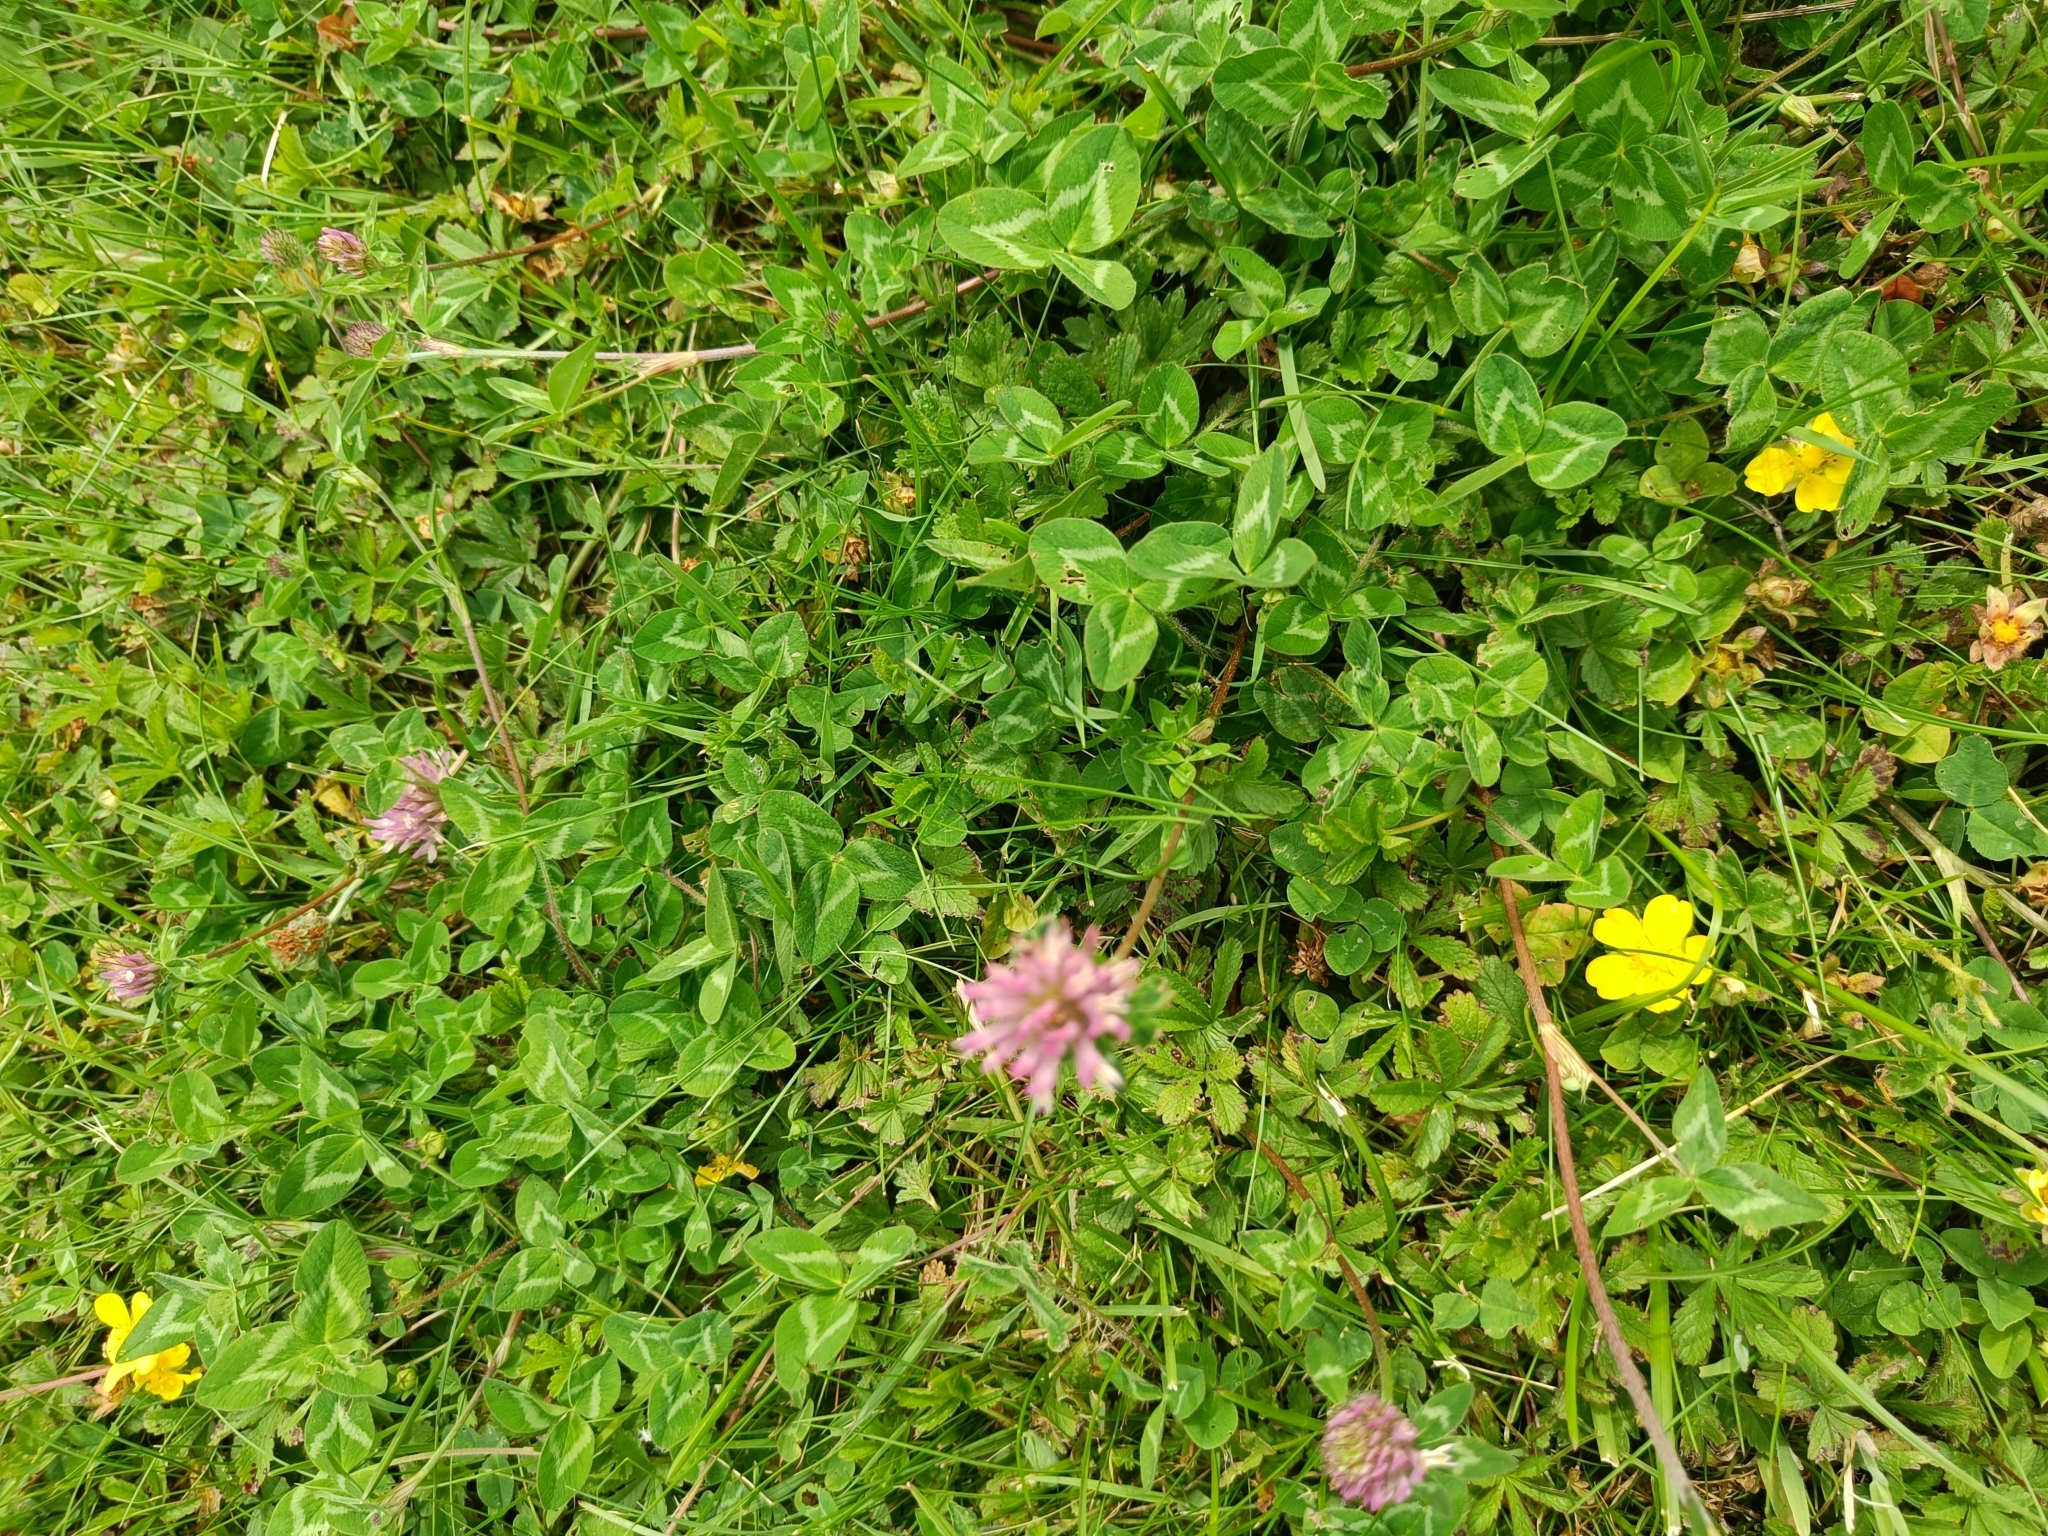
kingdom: Plantae
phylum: Tracheophyta
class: Magnoliopsida
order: Fabales
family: Fabaceae
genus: Trifolium
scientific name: Trifolium pratense
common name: Red clover
